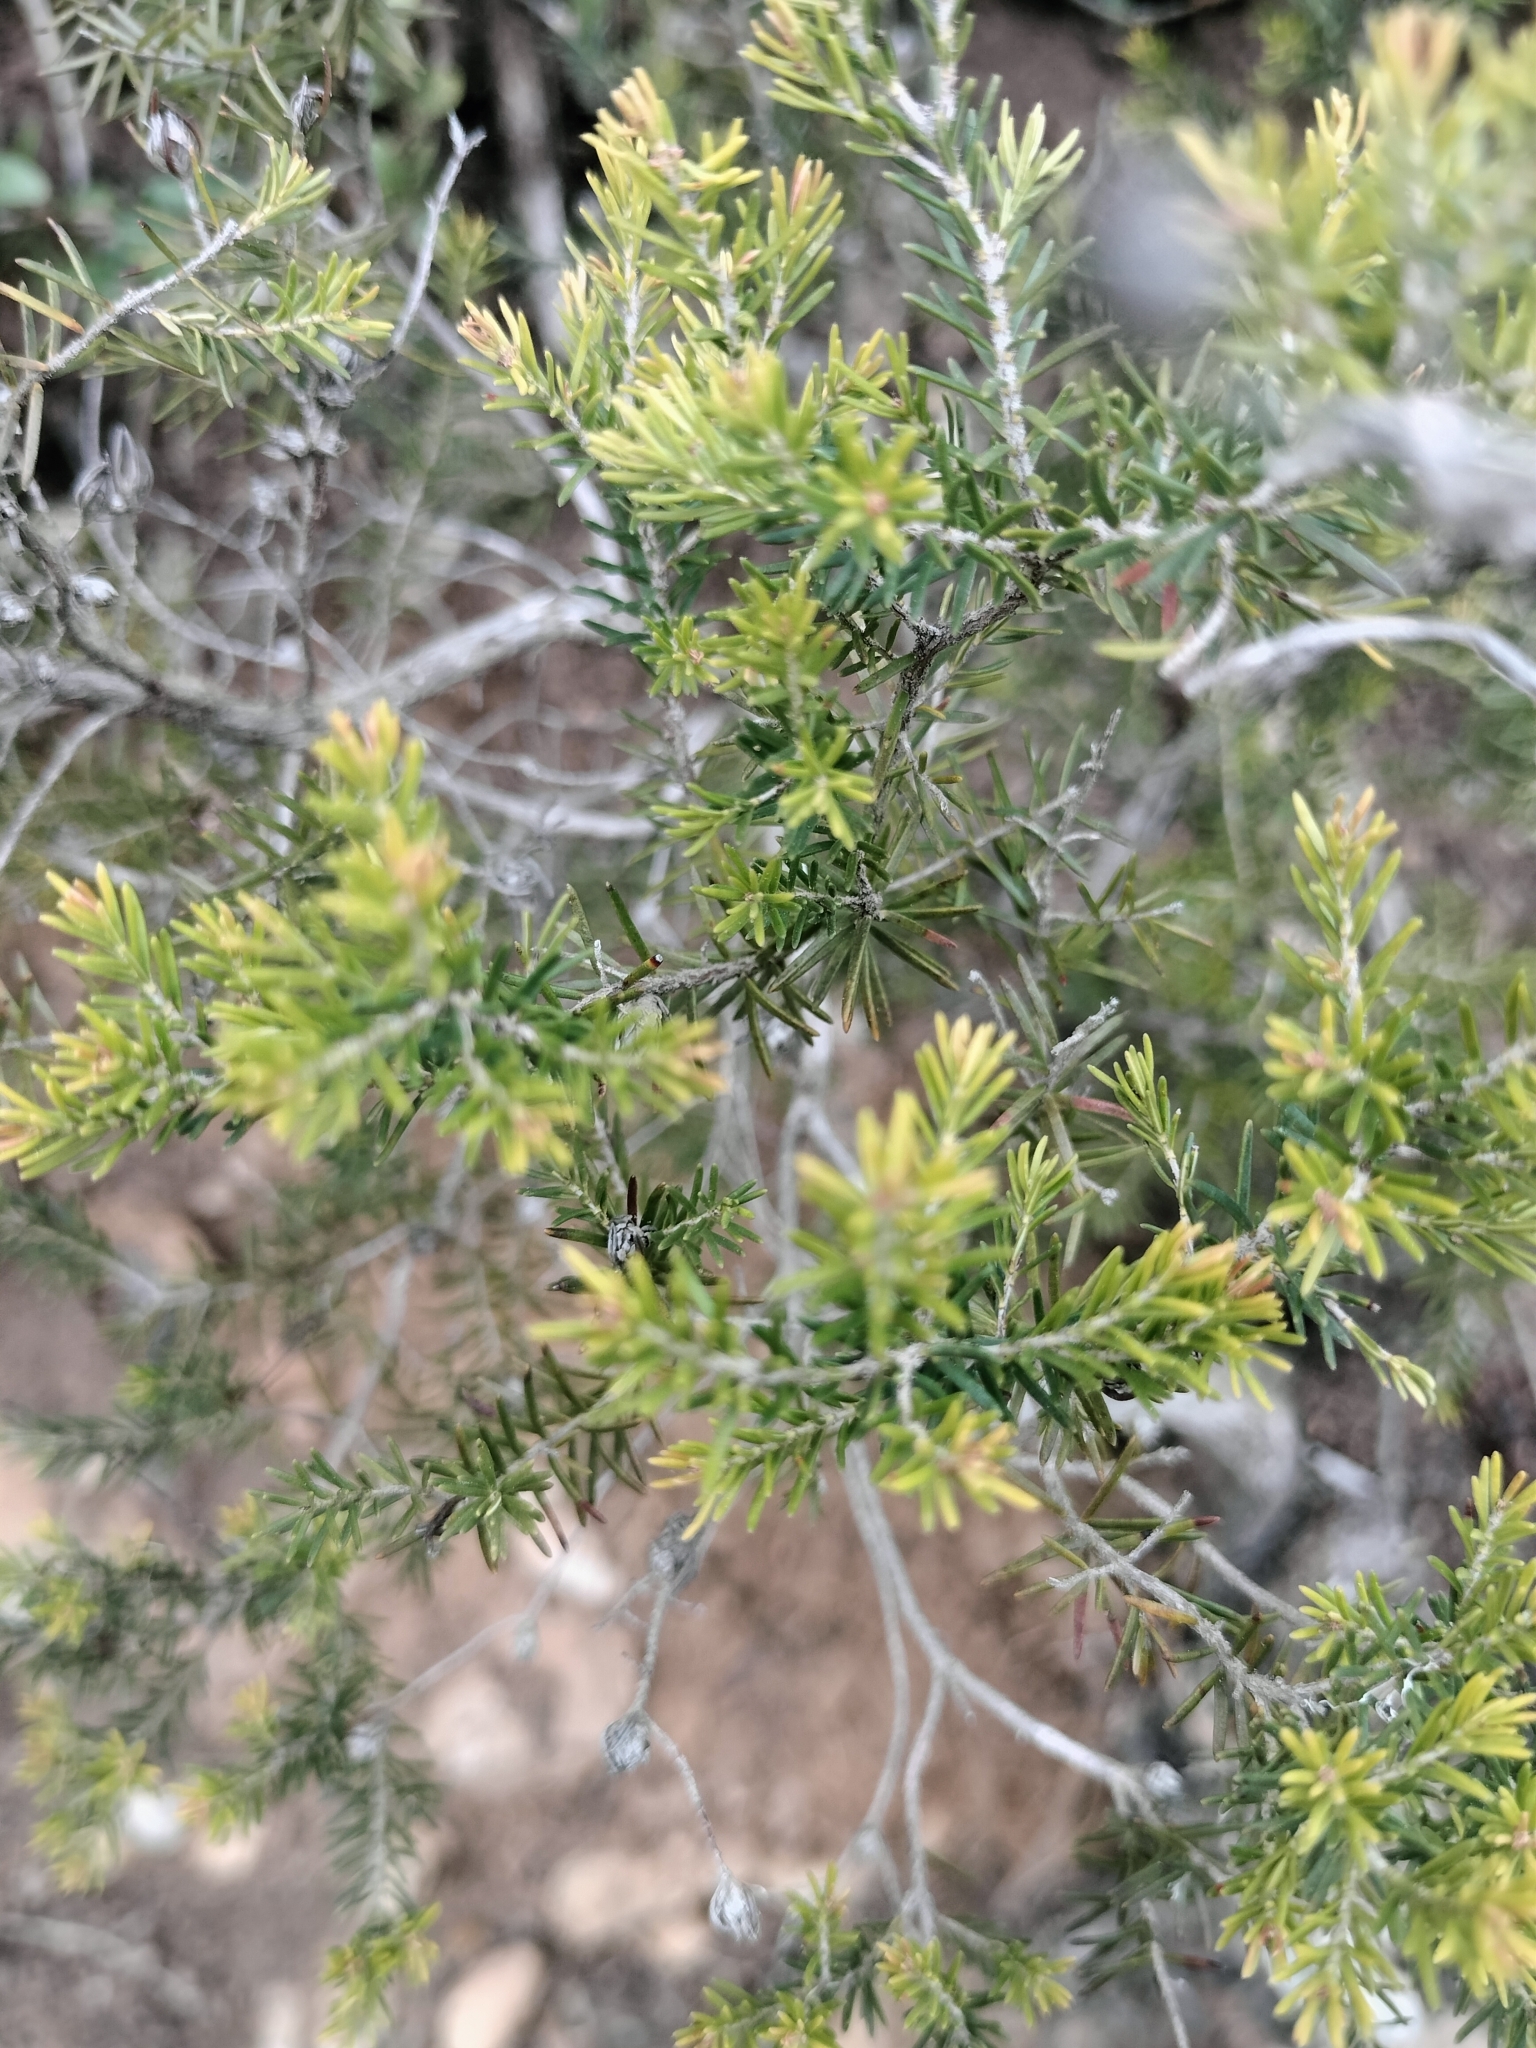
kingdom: Plantae
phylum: Tracheophyta
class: Magnoliopsida
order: Ericales
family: Ericaceae
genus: Erica
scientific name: Erica arborea
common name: Tree heath
